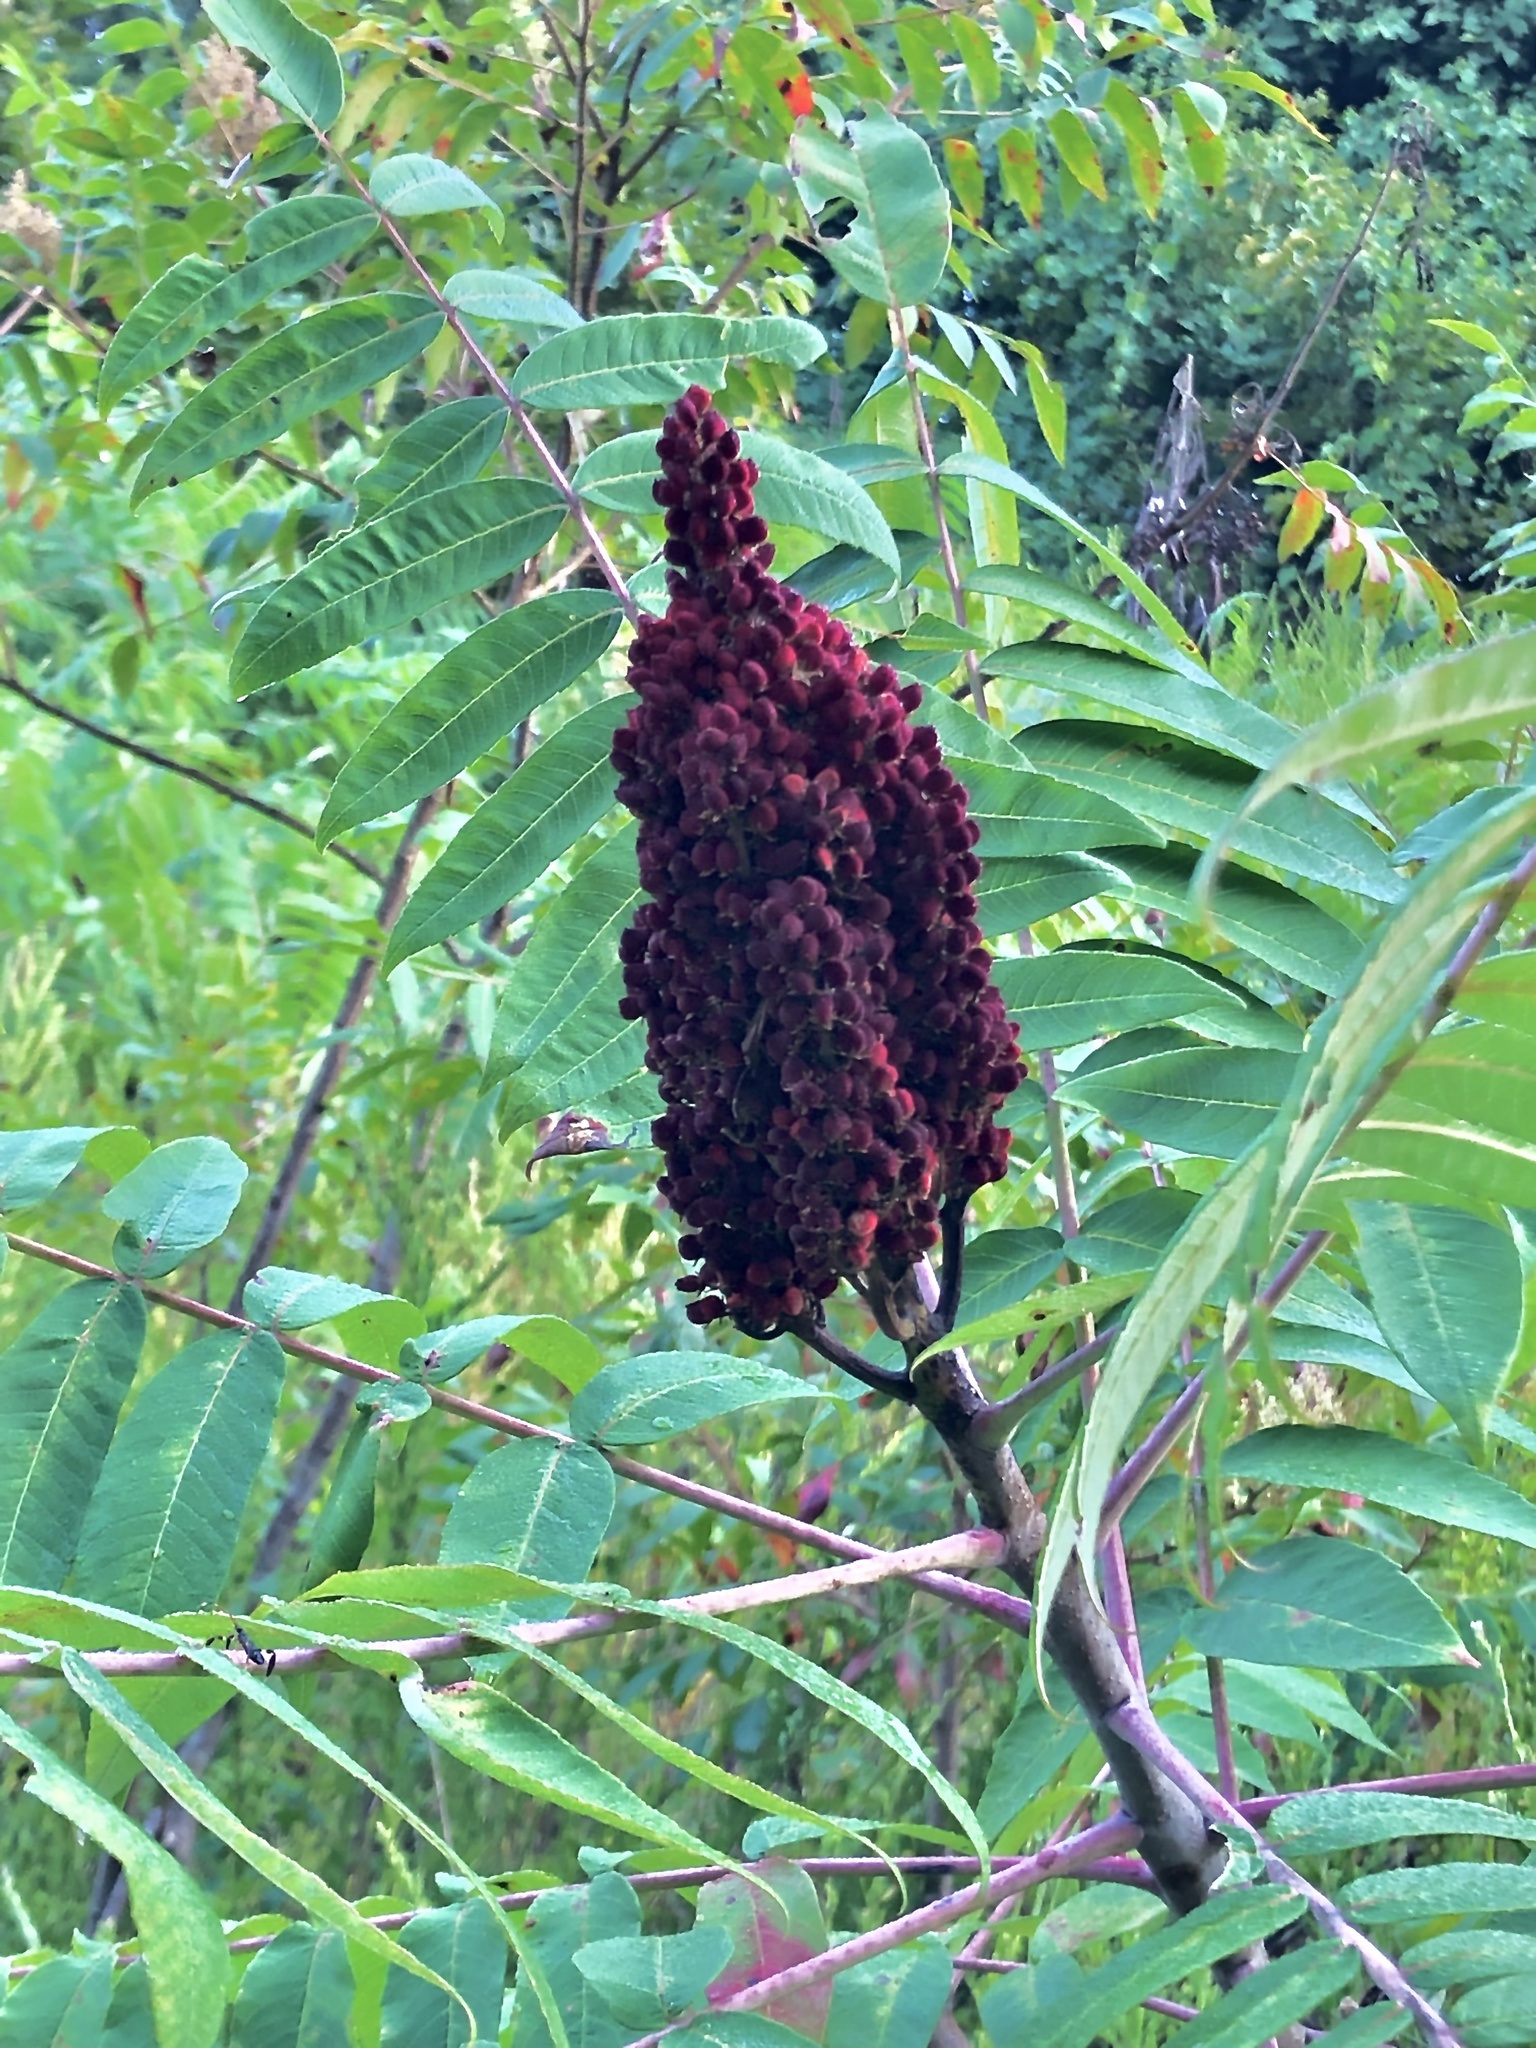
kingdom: Plantae
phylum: Tracheophyta
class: Magnoliopsida
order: Sapindales
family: Anacardiaceae
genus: Rhus
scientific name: Rhus typhina
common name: Staghorn sumac
